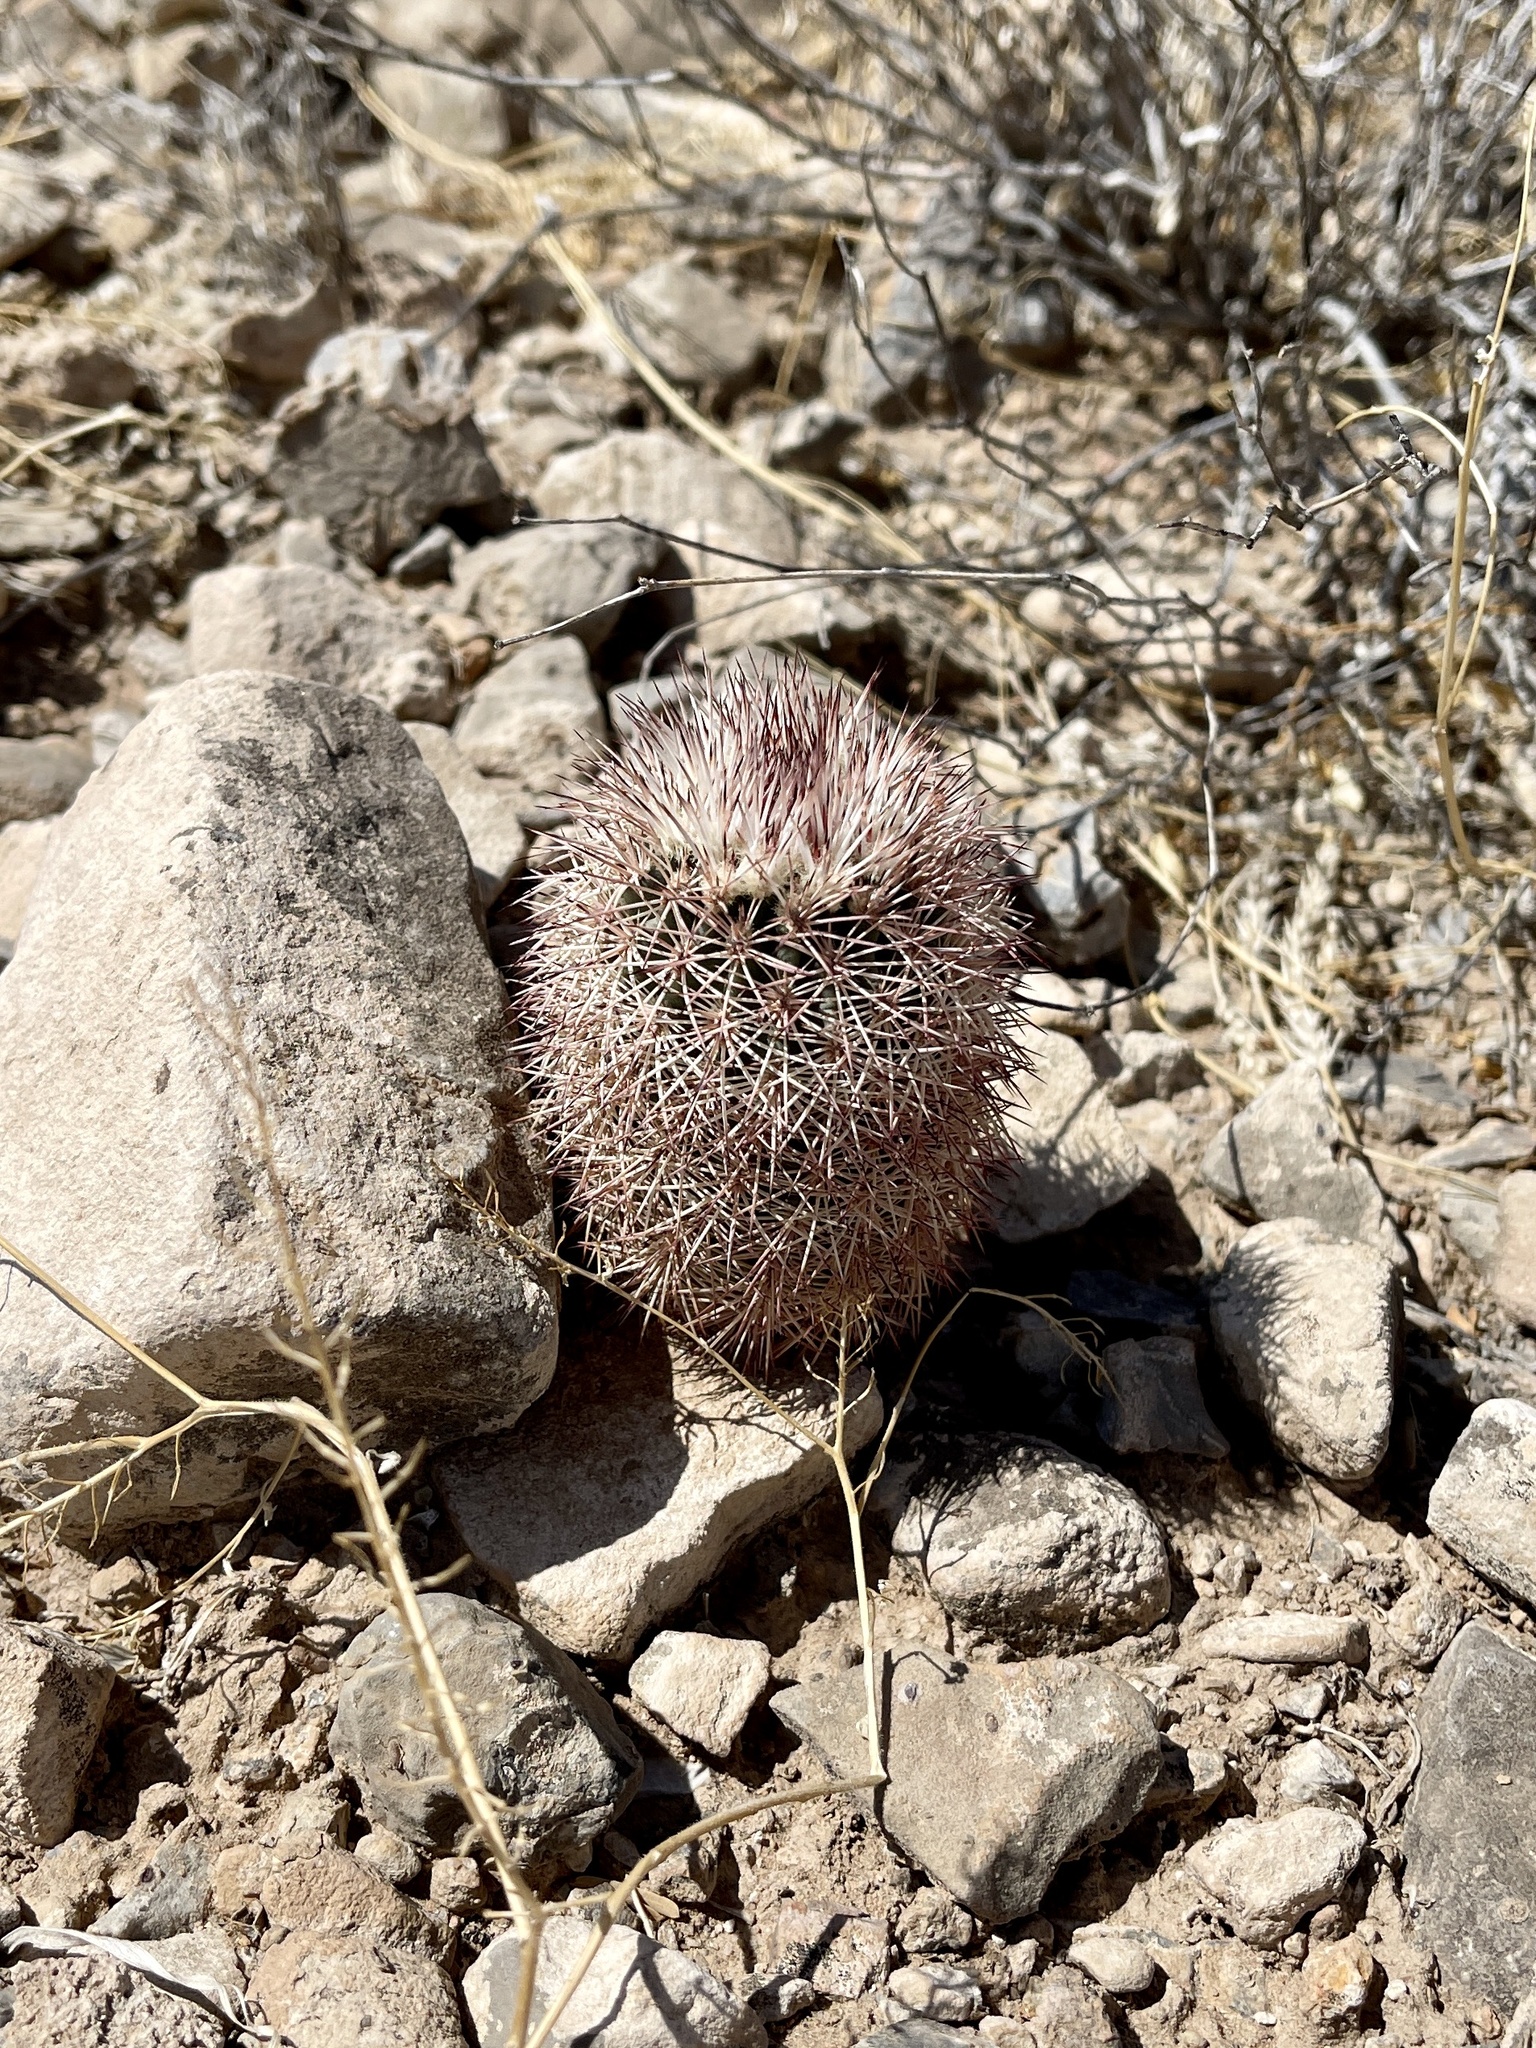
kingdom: Plantae
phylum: Tracheophyta
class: Magnoliopsida
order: Caryophyllales
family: Cactaceae
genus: Echinocereus
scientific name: Echinocereus dasyacanthus
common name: Spiny hedgehog cactus
